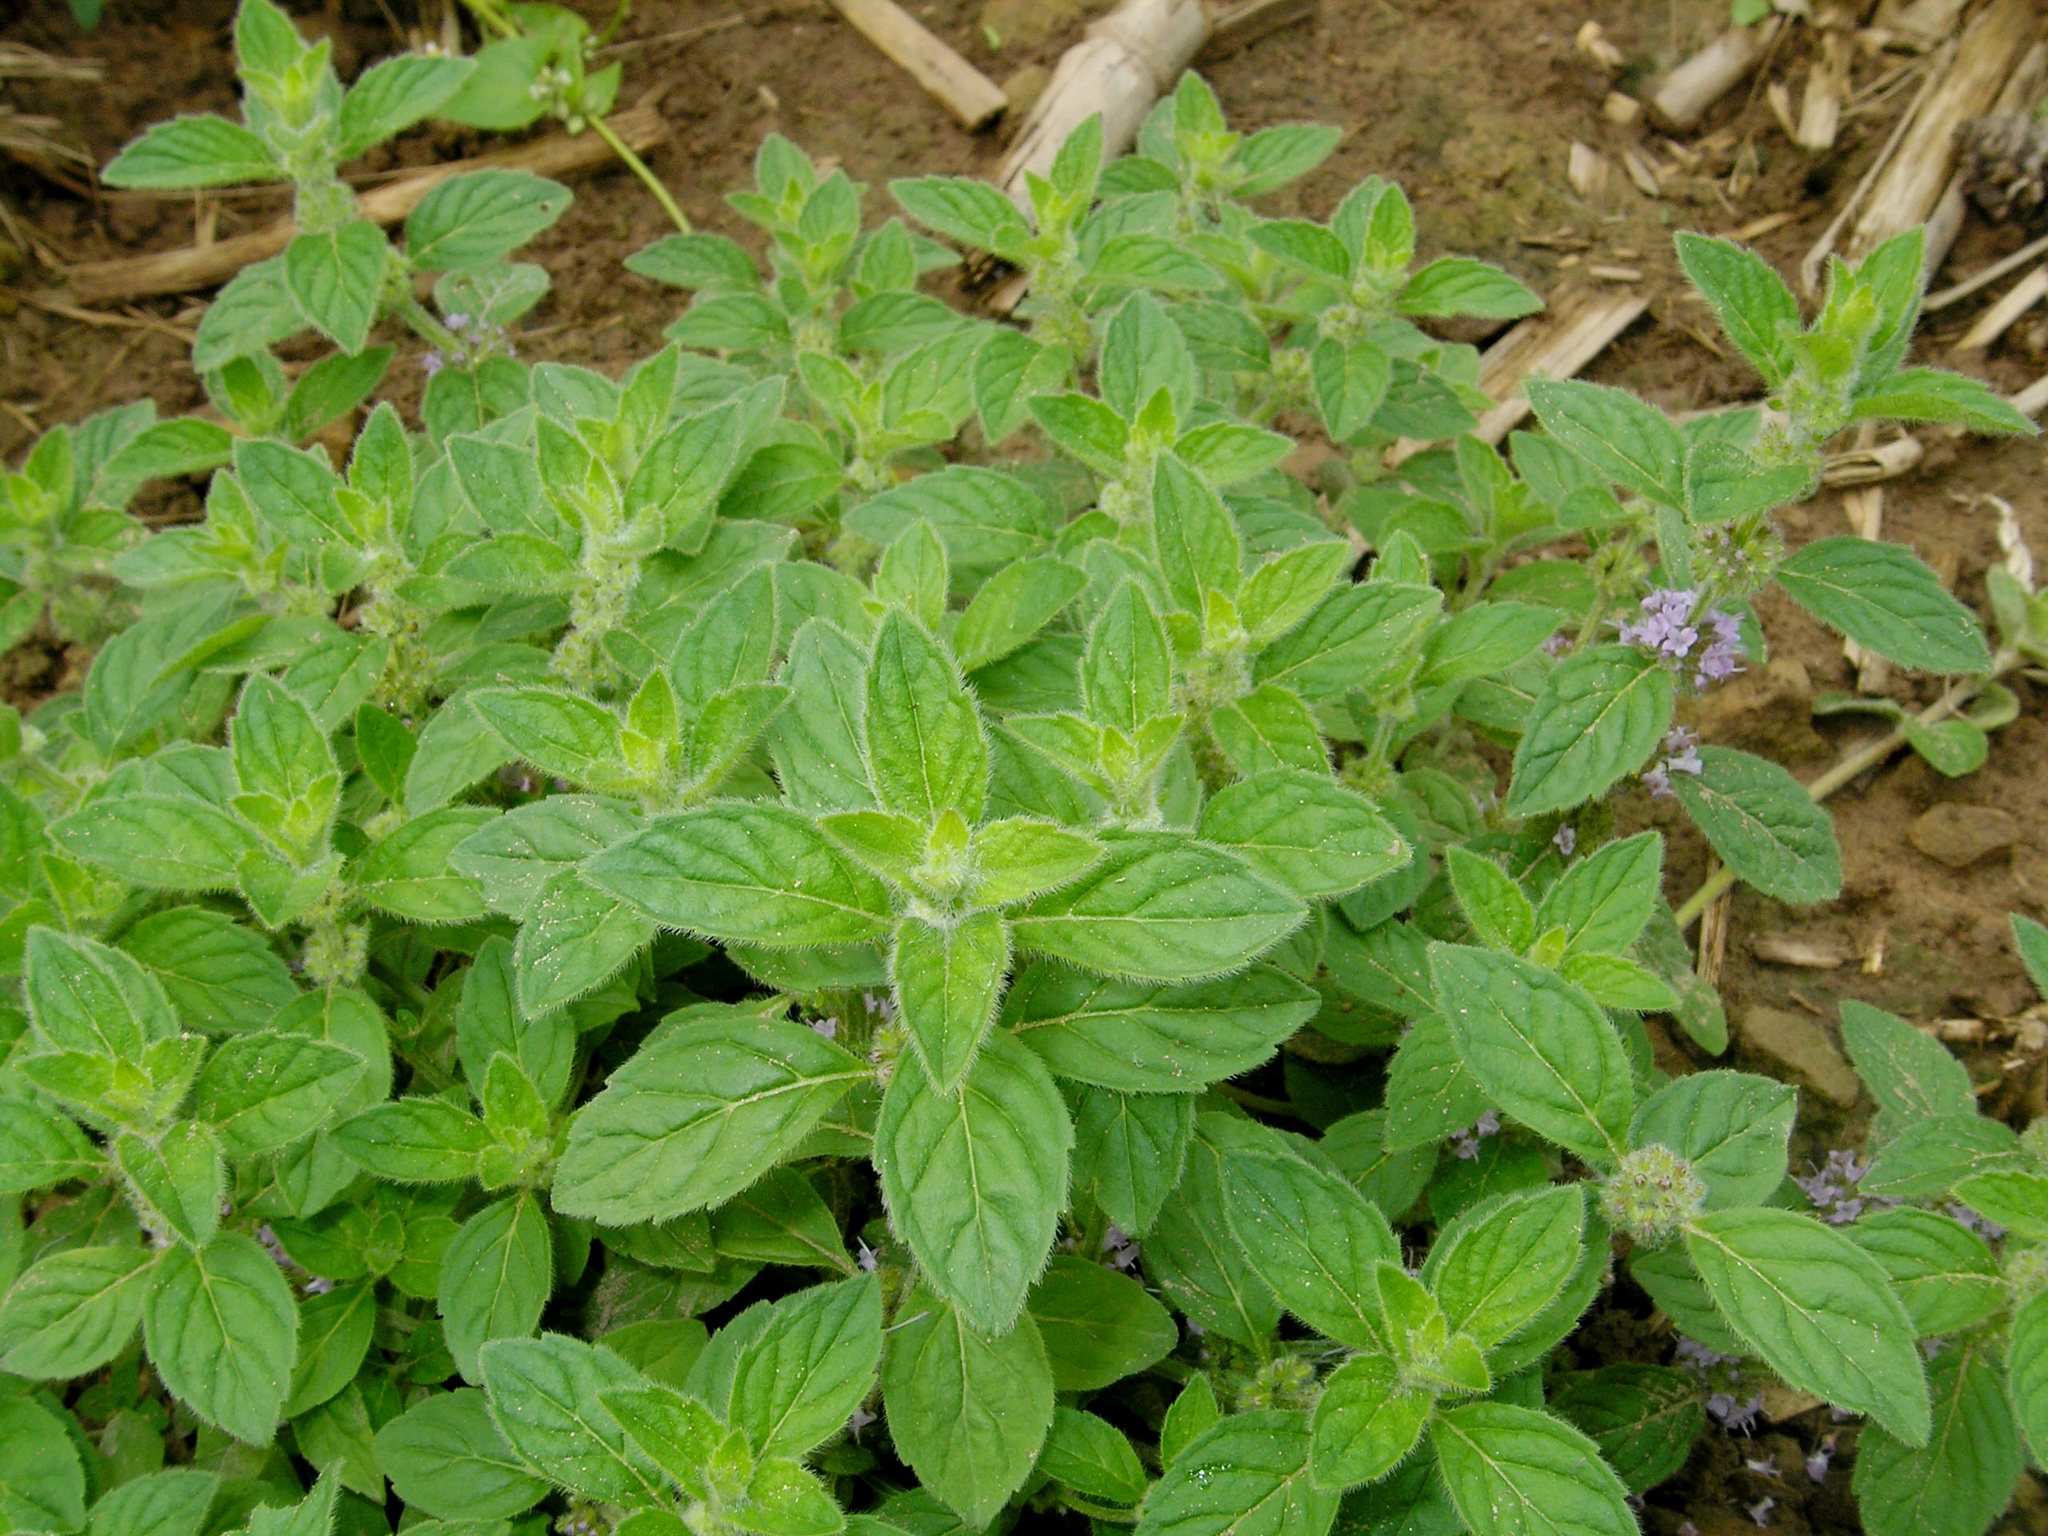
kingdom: Plantae
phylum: Tracheophyta
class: Magnoliopsida
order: Lamiales
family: Lamiaceae
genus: Mentha
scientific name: Mentha arvensis
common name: Corn mint
